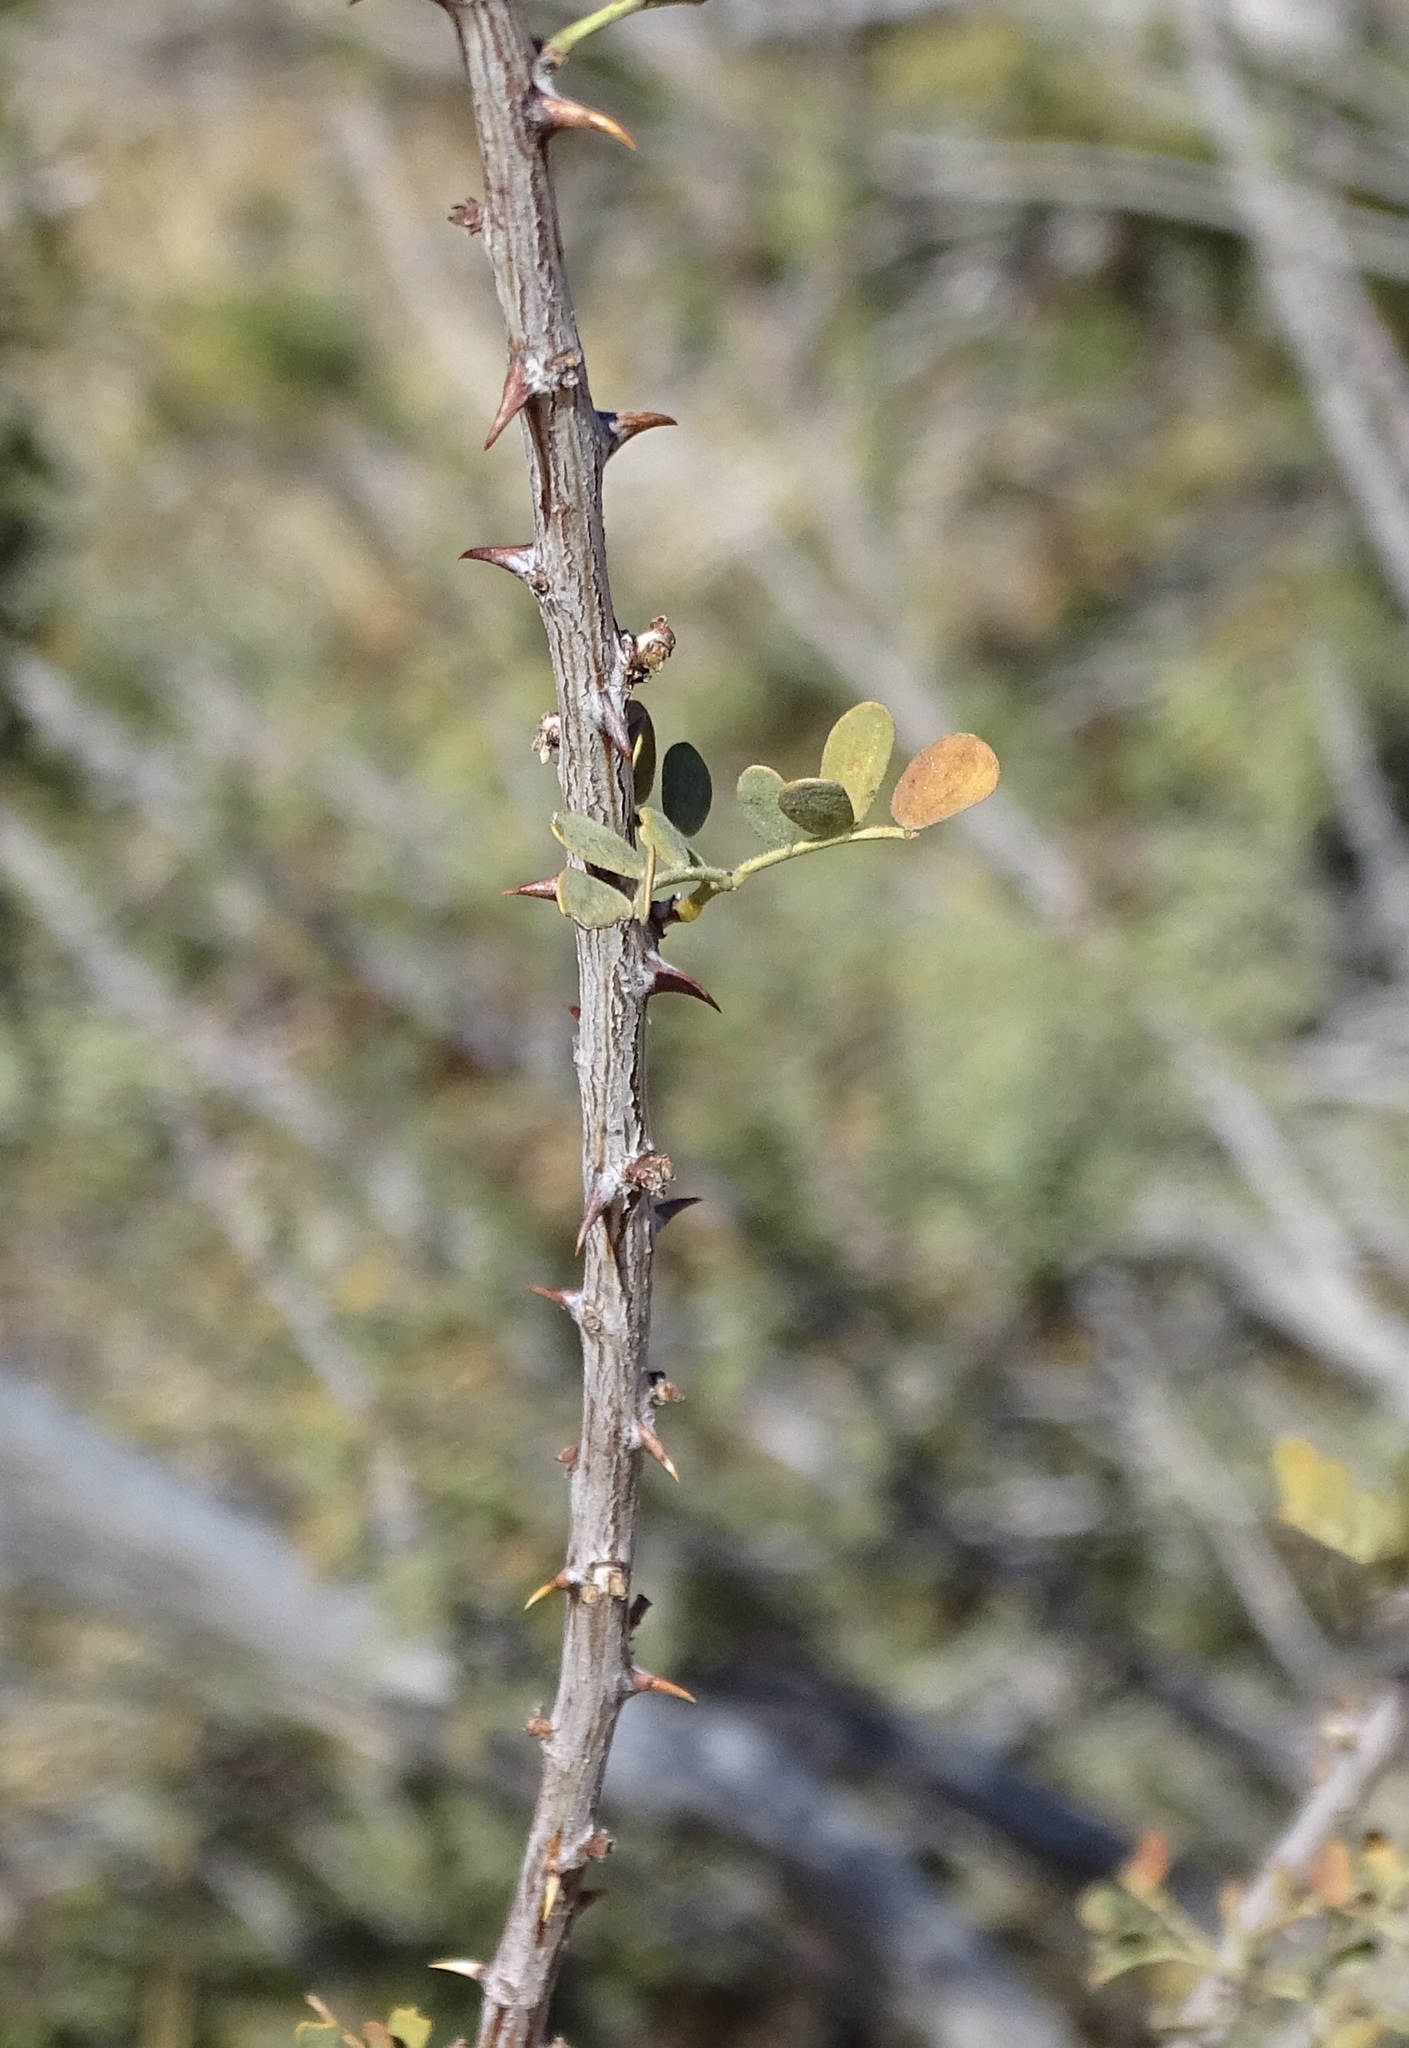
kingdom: Plantae
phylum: Tracheophyta
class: Magnoliopsida
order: Fabales
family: Fabaceae
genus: Senegalia
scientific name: Senegalia greggii
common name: Texas-mimosa
